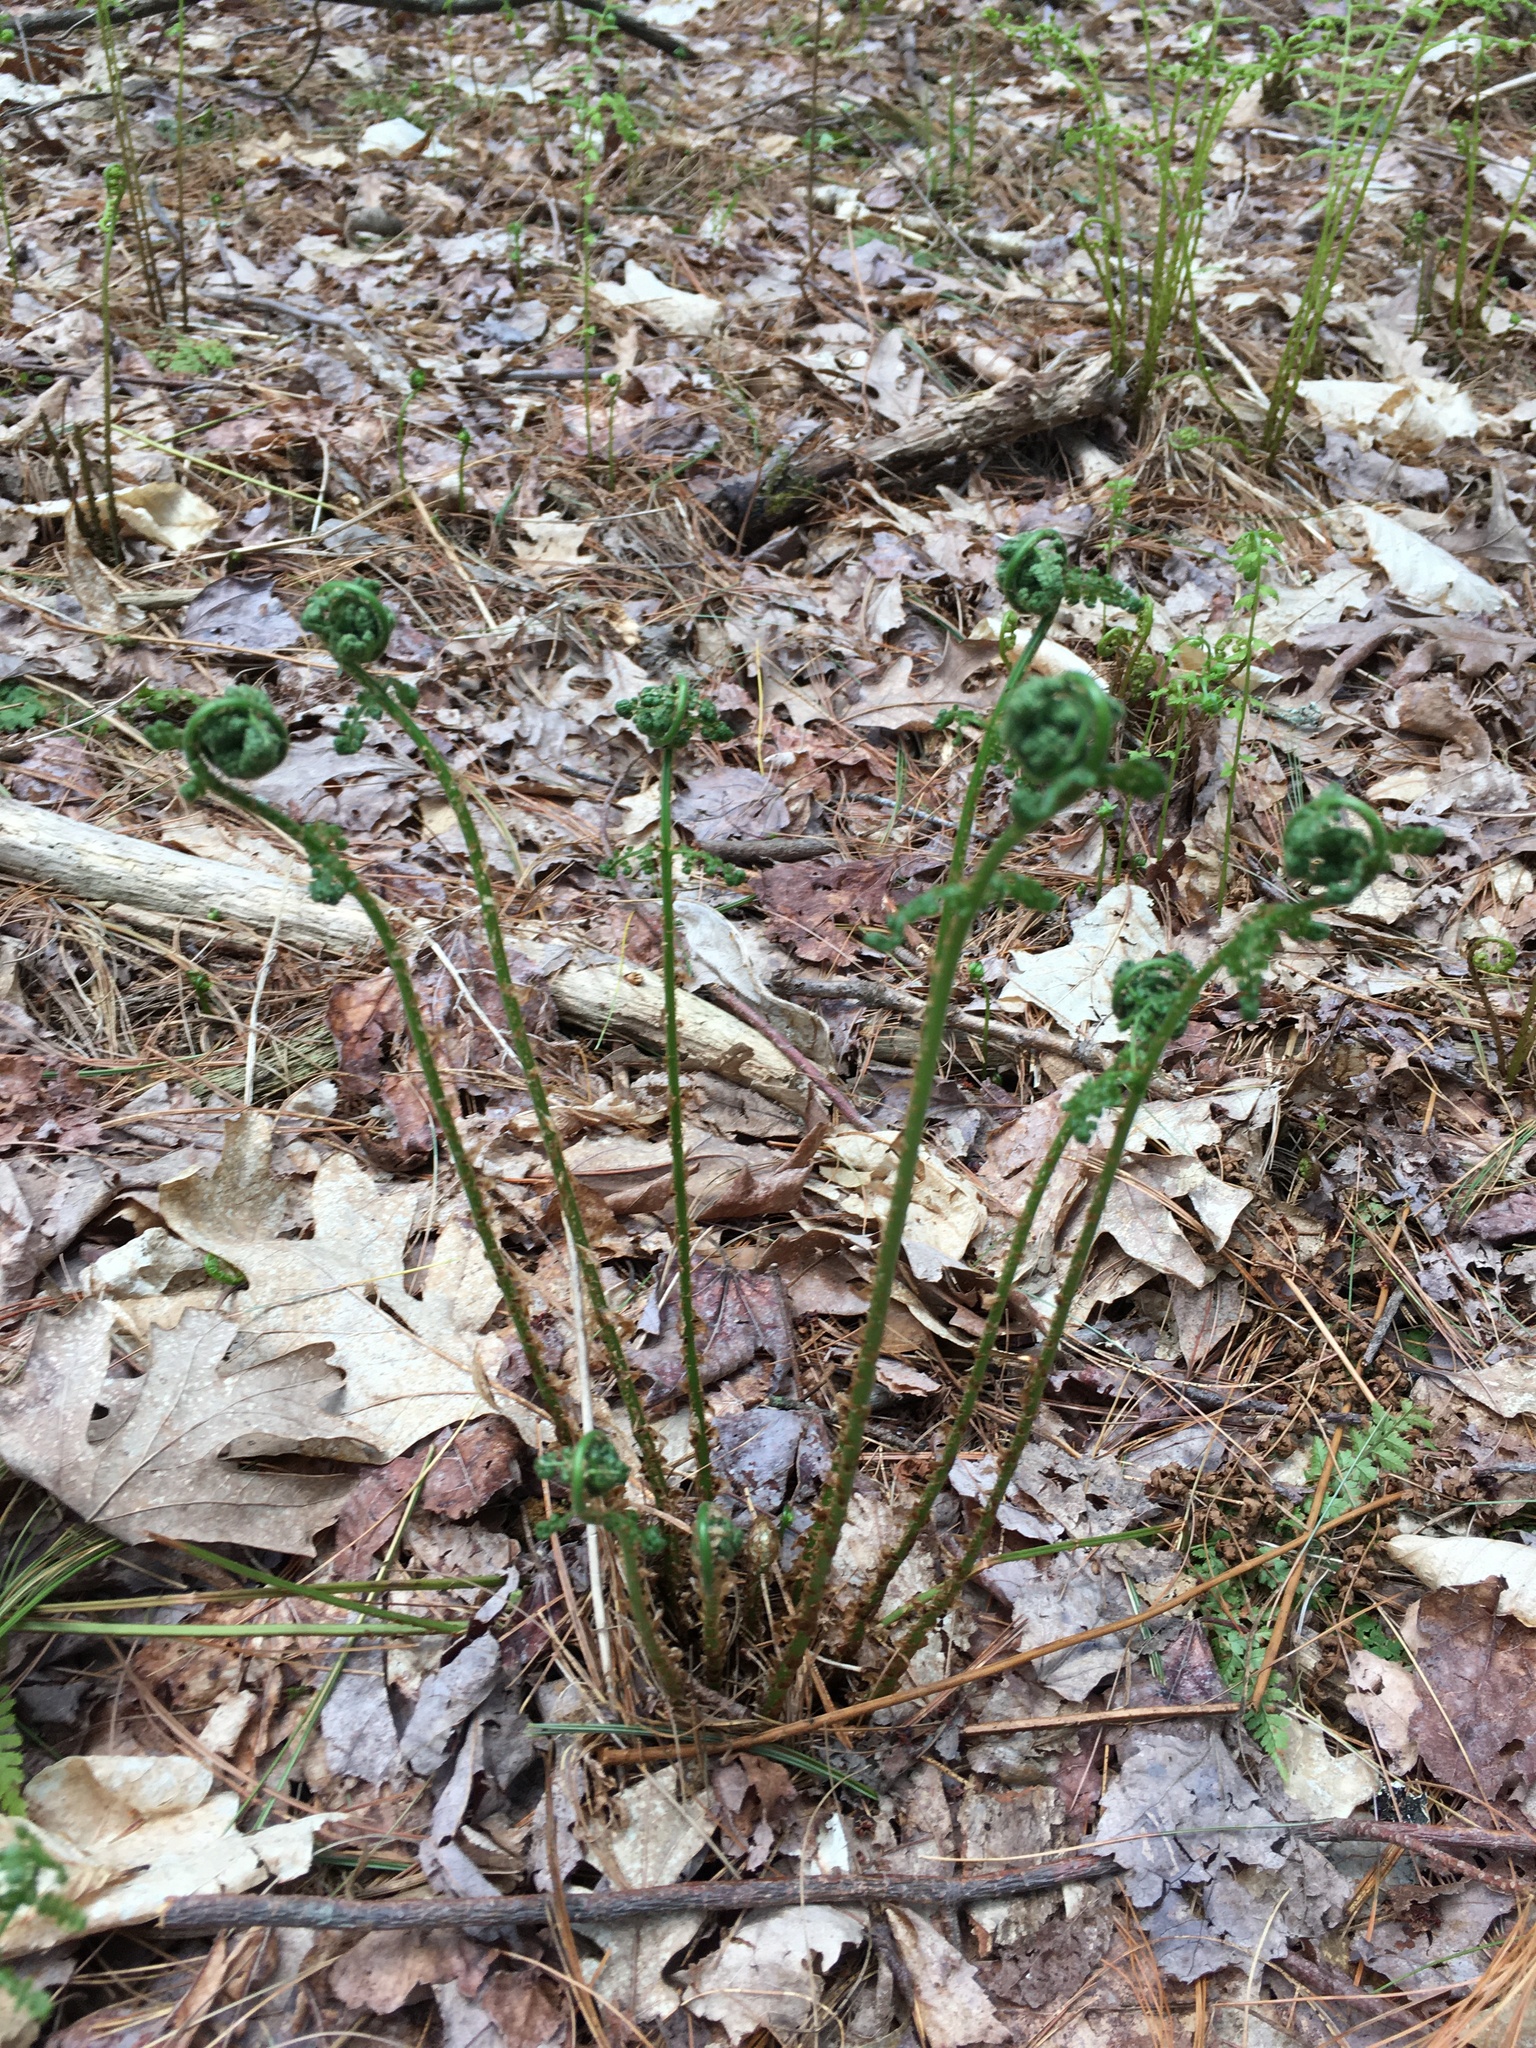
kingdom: Plantae
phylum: Tracheophyta
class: Polypodiopsida
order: Polypodiales
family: Dryopteridaceae
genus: Dryopteris
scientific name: Dryopteris intermedia
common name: Evergreen wood fern
